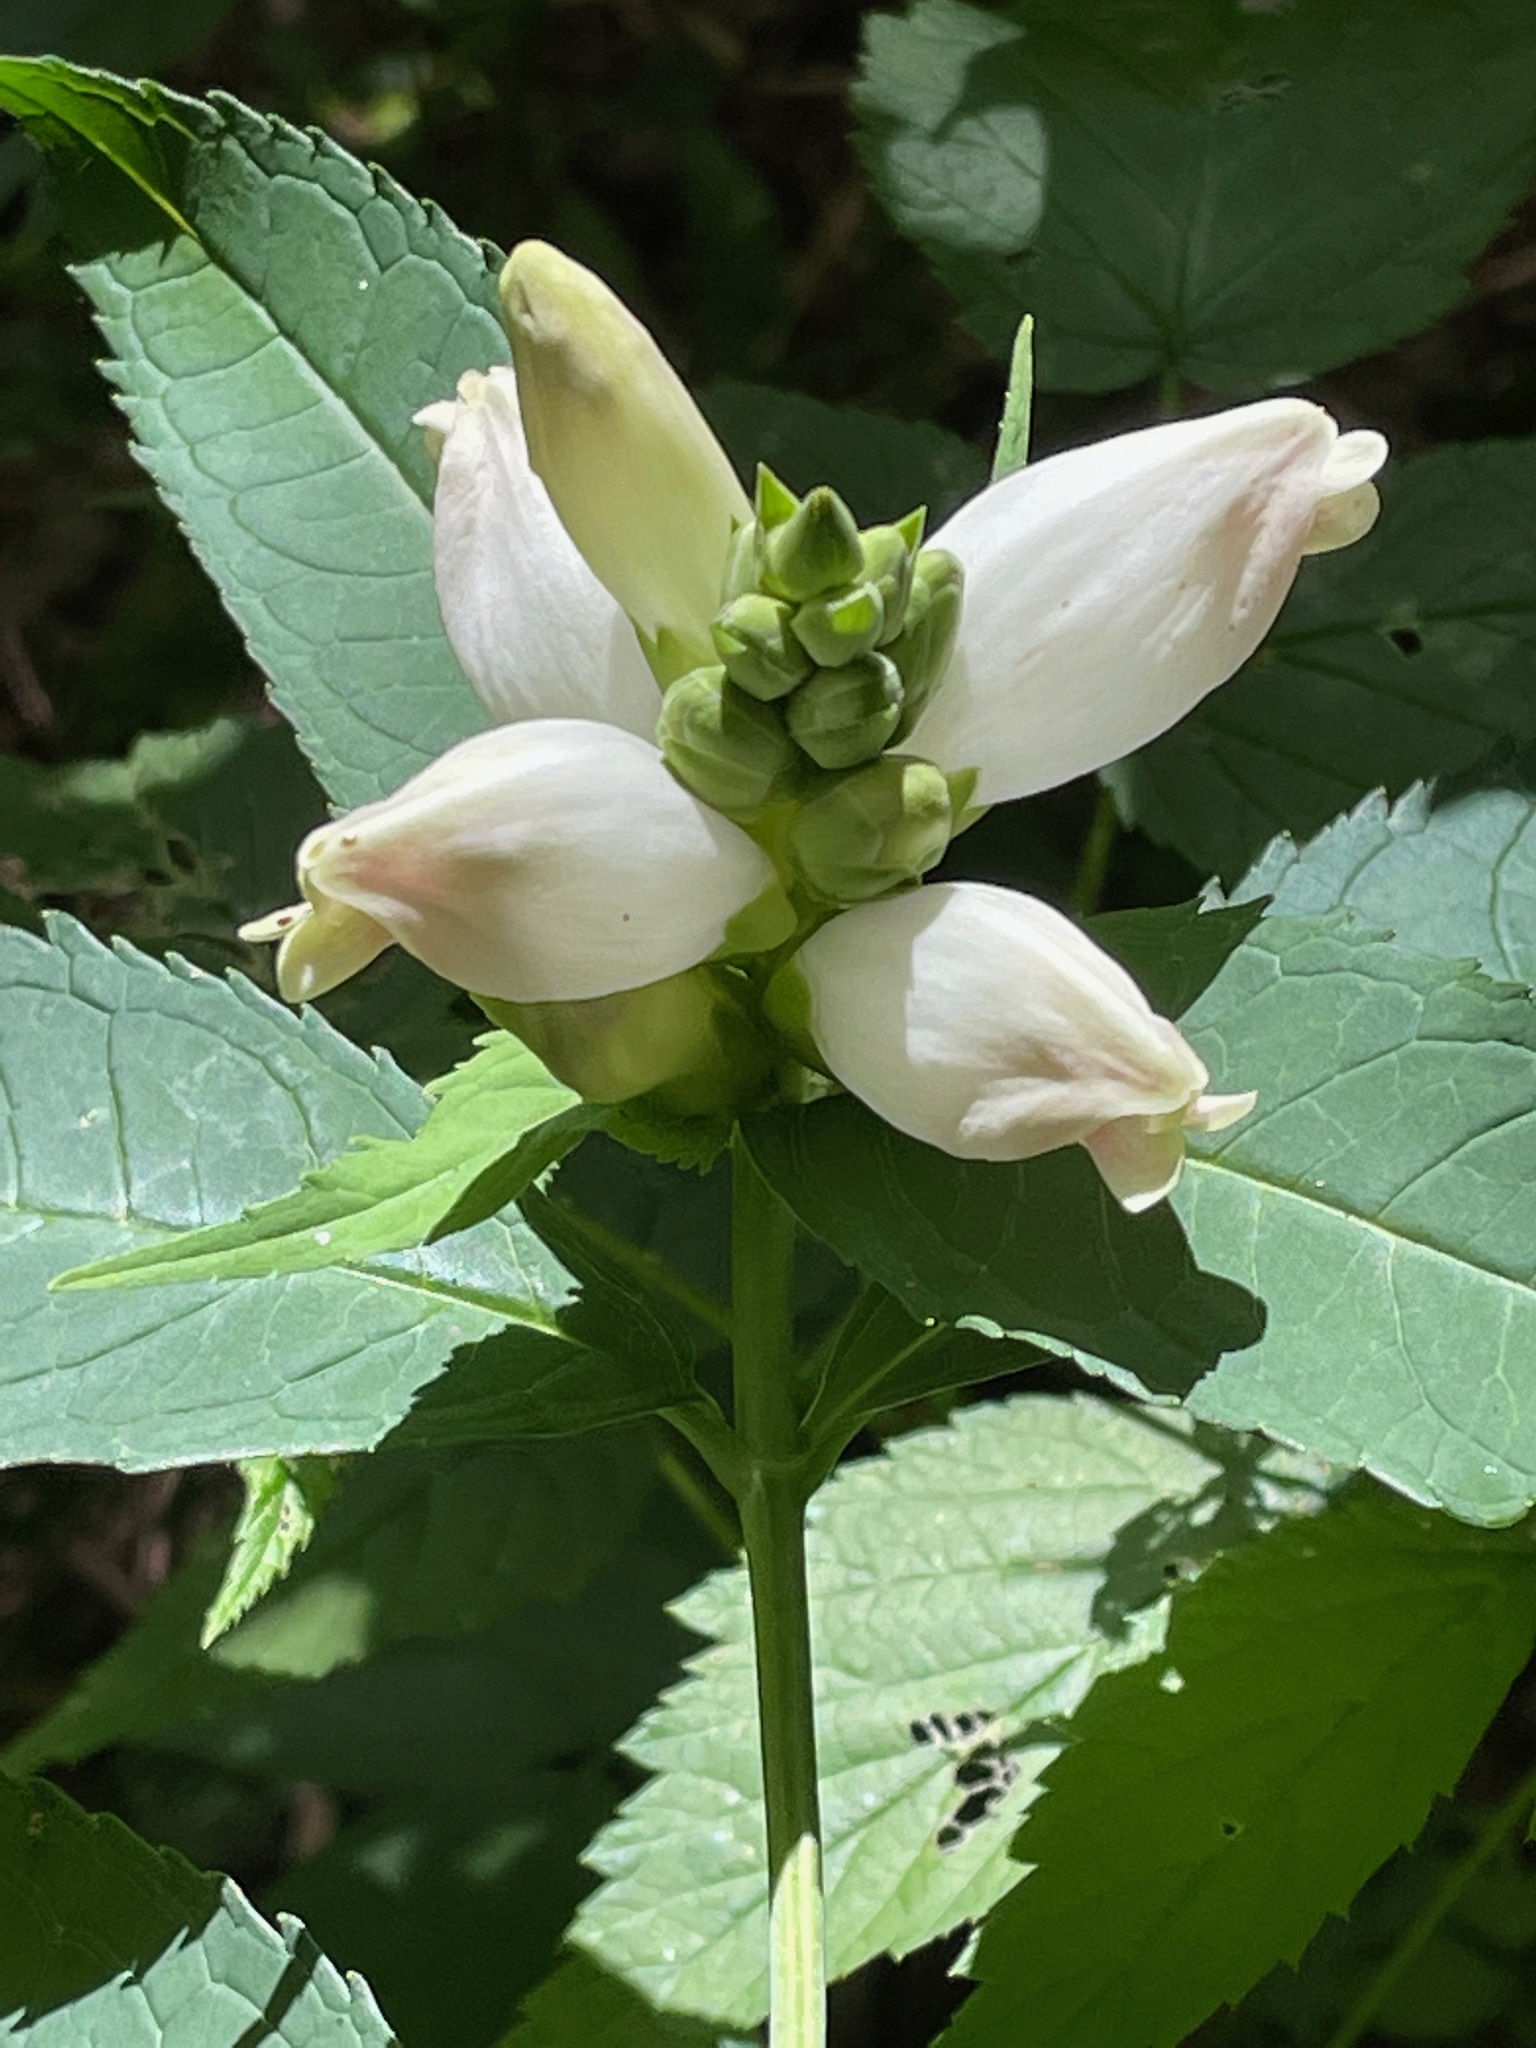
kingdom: Plantae
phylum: Tracheophyta
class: Magnoliopsida
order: Lamiales
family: Plantaginaceae
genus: Chelone
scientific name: Chelone glabra
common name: Snakehead
